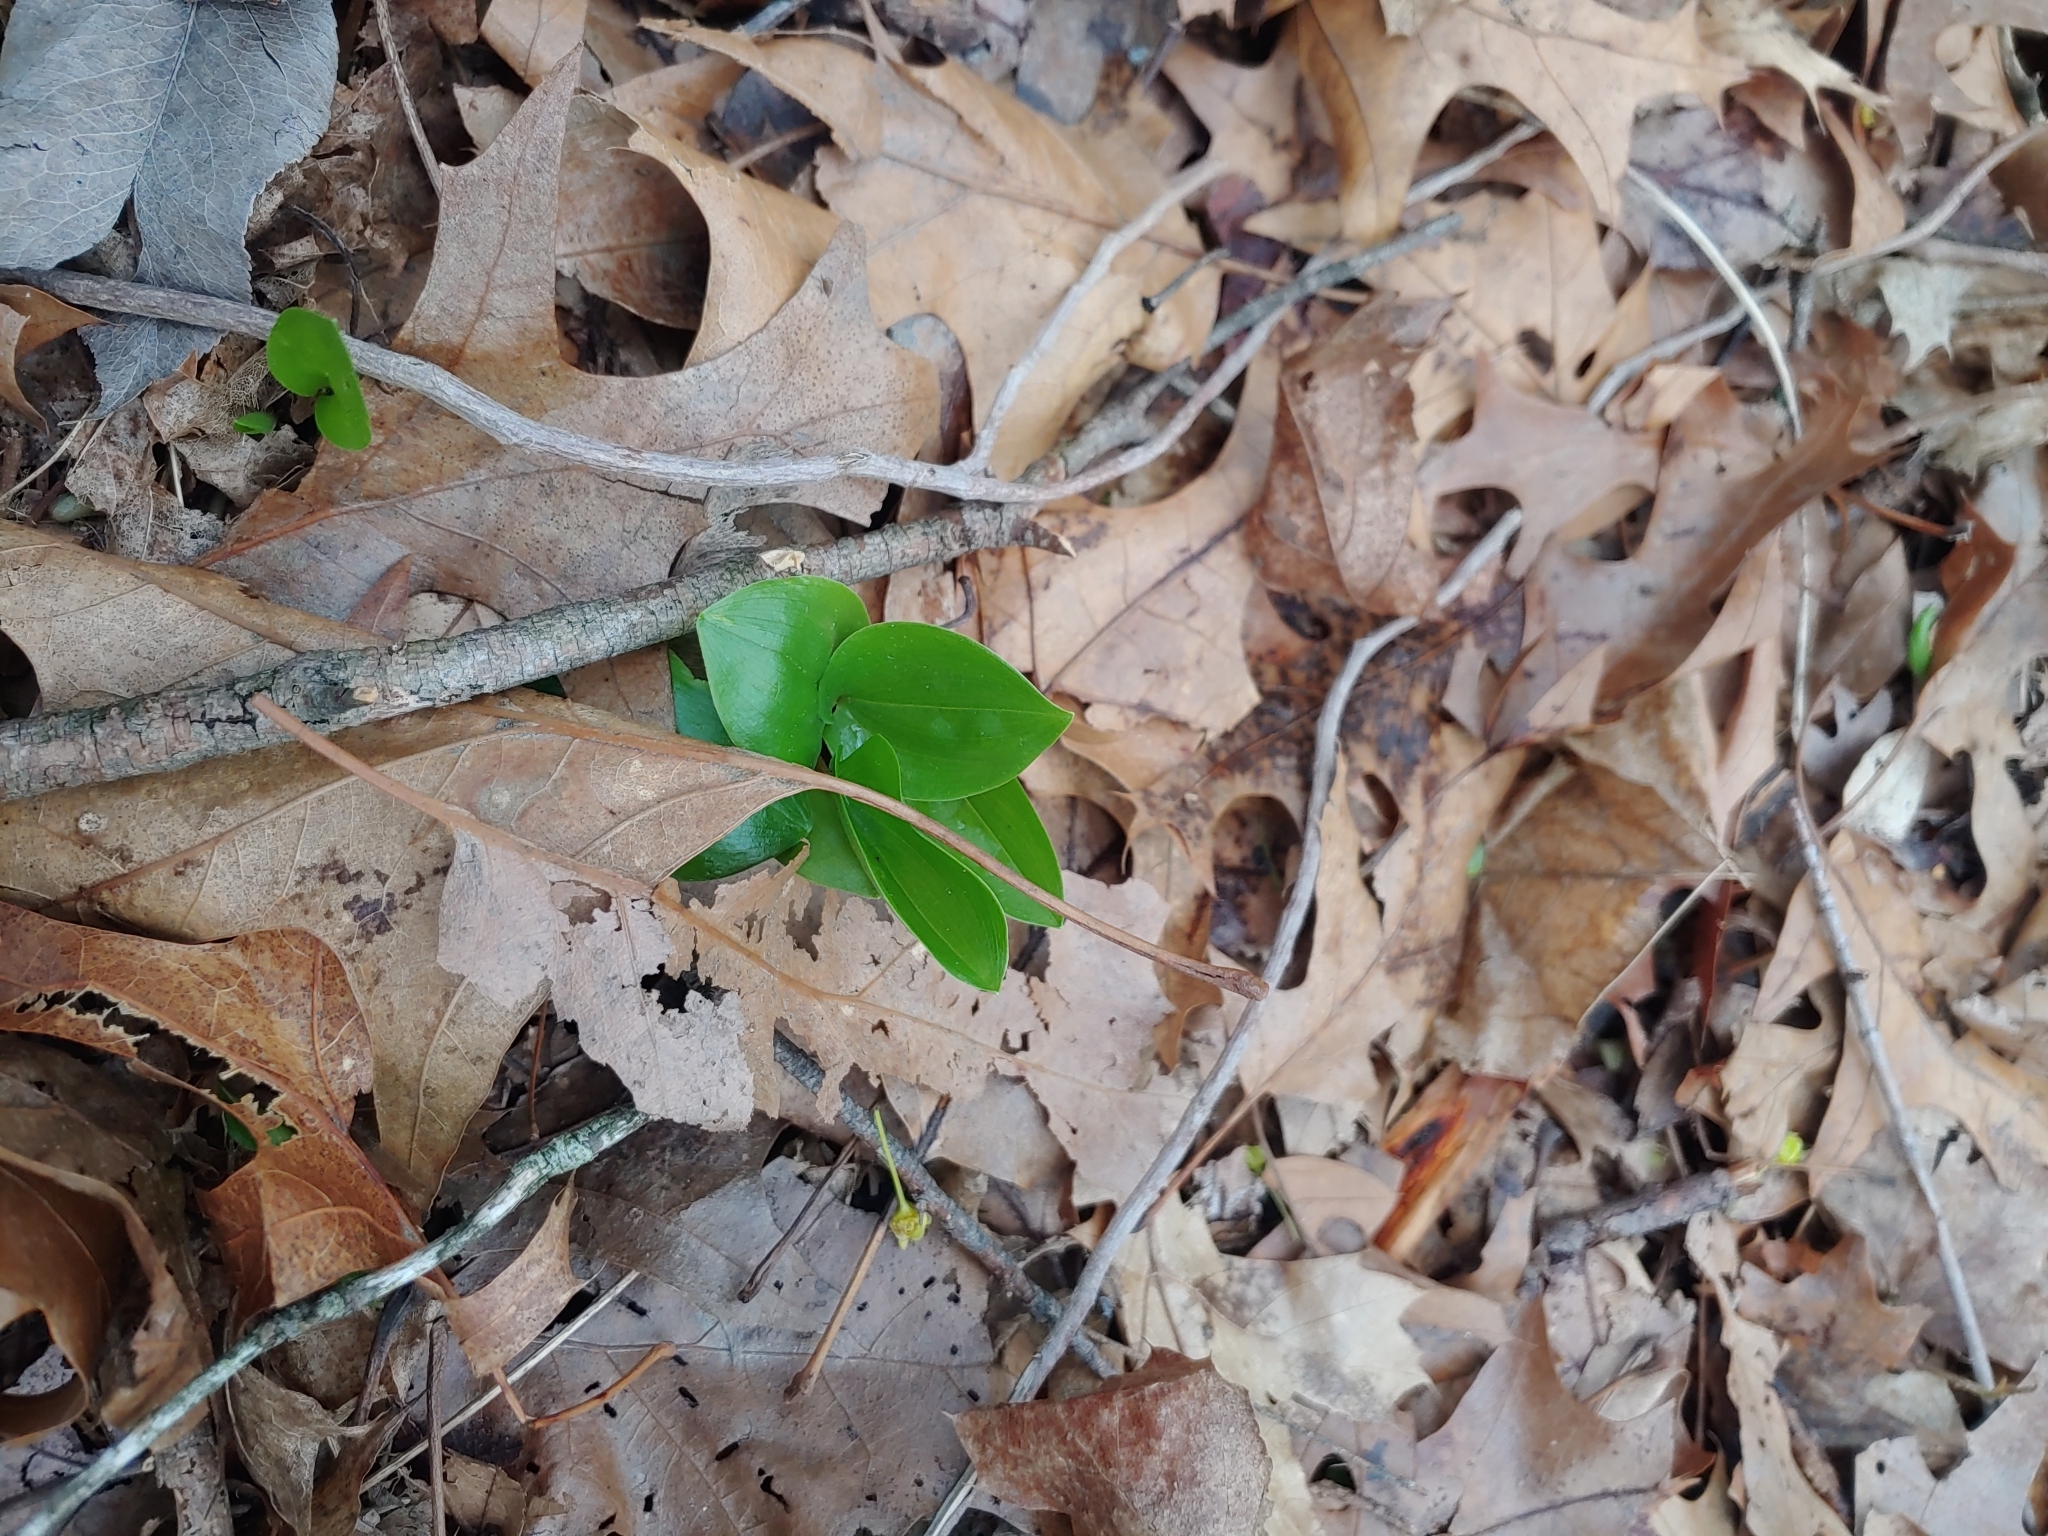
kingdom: Plantae
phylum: Tracheophyta
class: Liliopsida
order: Asparagales
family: Asparagaceae
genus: Maianthemum
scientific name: Maianthemum canadense
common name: False lily-of-the-valley
